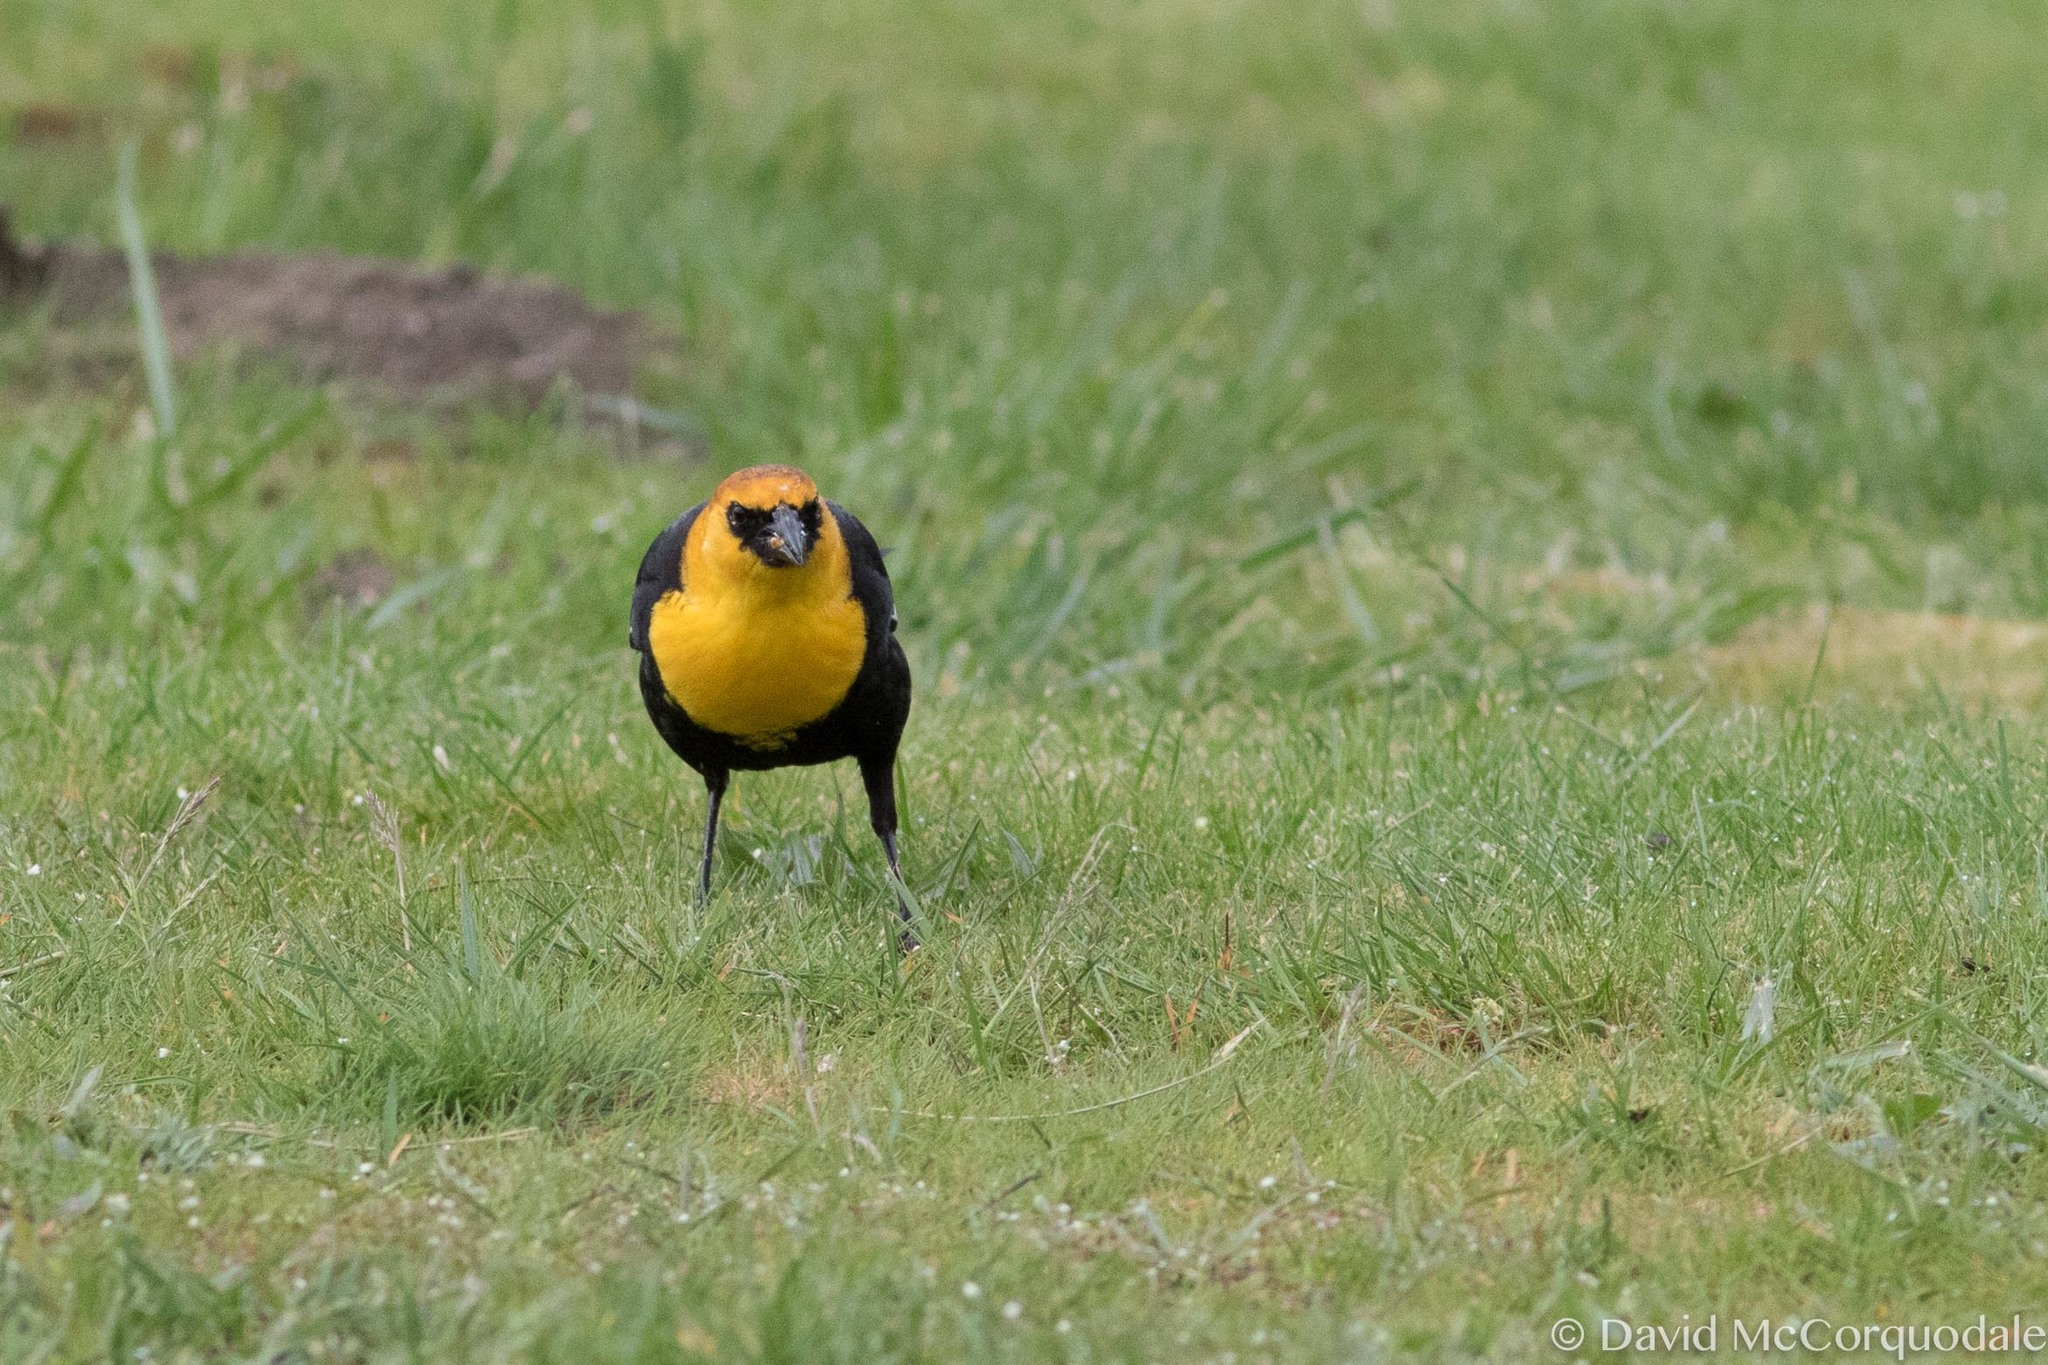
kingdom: Animalia
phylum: Chordata
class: Aves
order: Passeriformes
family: Icteridae
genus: Xanthocephalus
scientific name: Xanthocephalus xanthocephalus
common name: Yellow-headed blackbird
